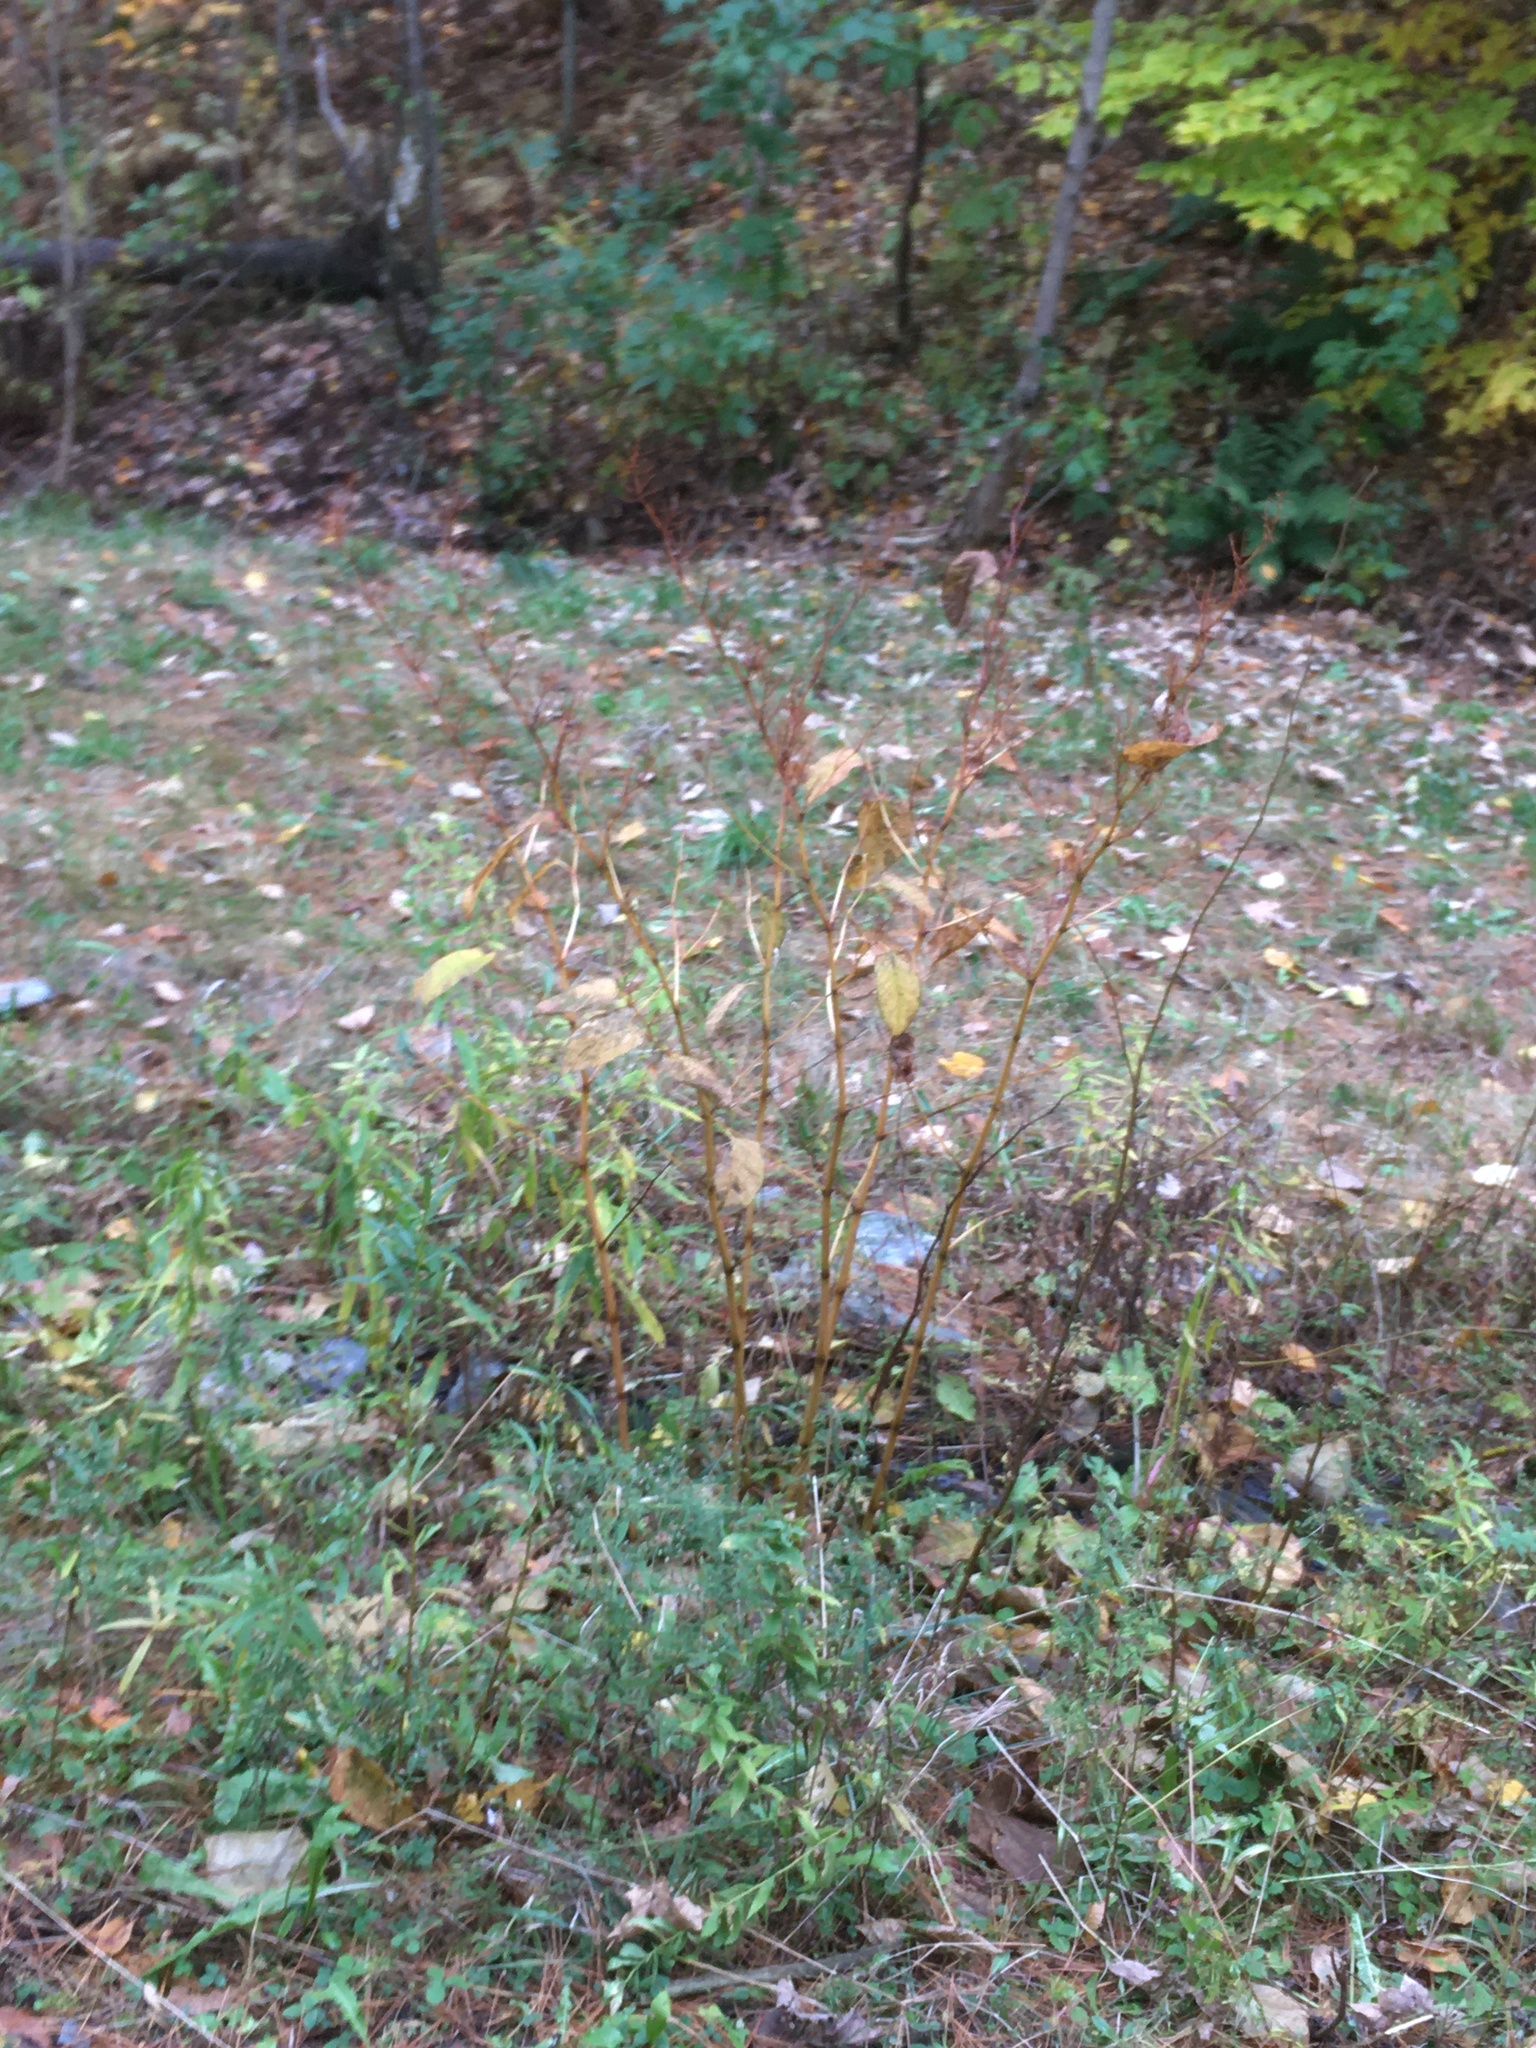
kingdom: Plantae
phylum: Tracheophyta
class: Magnoliopsida
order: Caryophyllales
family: Polygonaceae
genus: Reynoutria
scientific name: Reynoutria japonica
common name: Japanese knotweed
